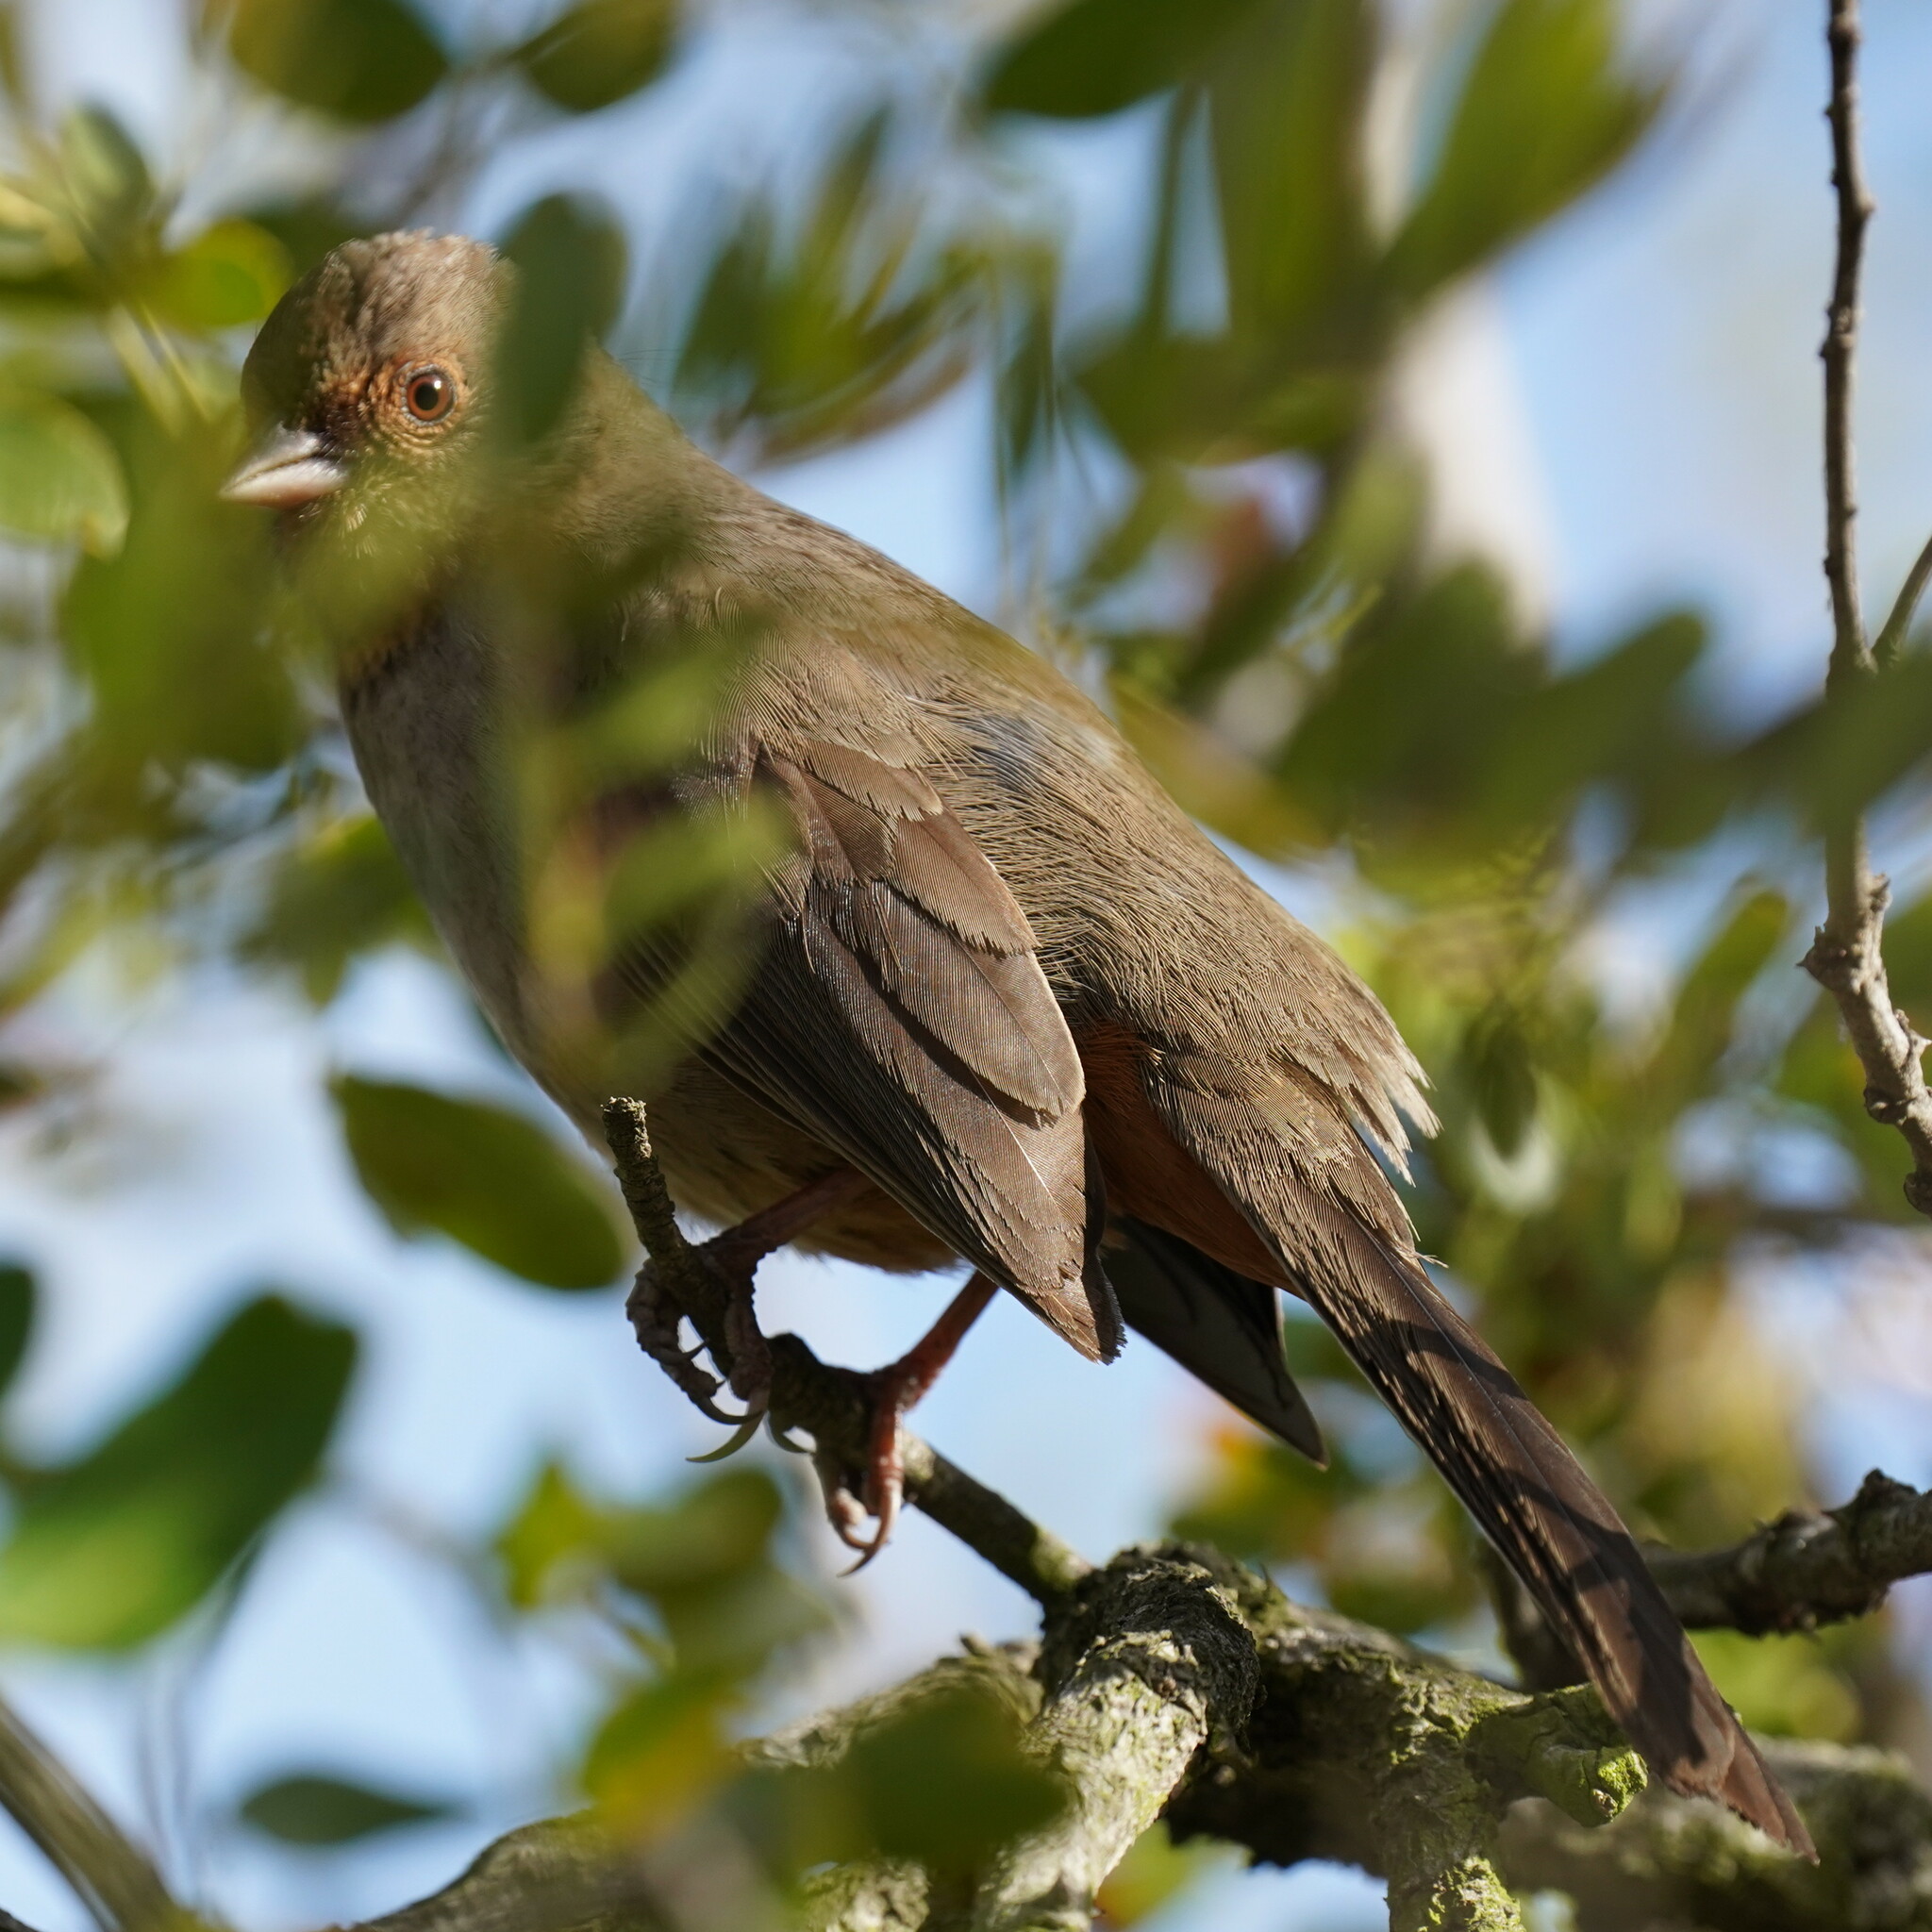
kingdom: Animalia
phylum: Chordata
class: Aves
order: Passeriformes
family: Passerellidae
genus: Melozone
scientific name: Melozone crissalis
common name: California towhee
